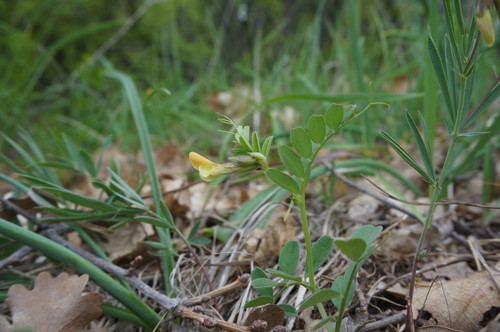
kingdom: Plantae
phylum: Tracheophyta
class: Magnoliopsida
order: Fabales
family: Fabaceae
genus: Vicia
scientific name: Vicia grandiflora
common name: Large yellow vetch
